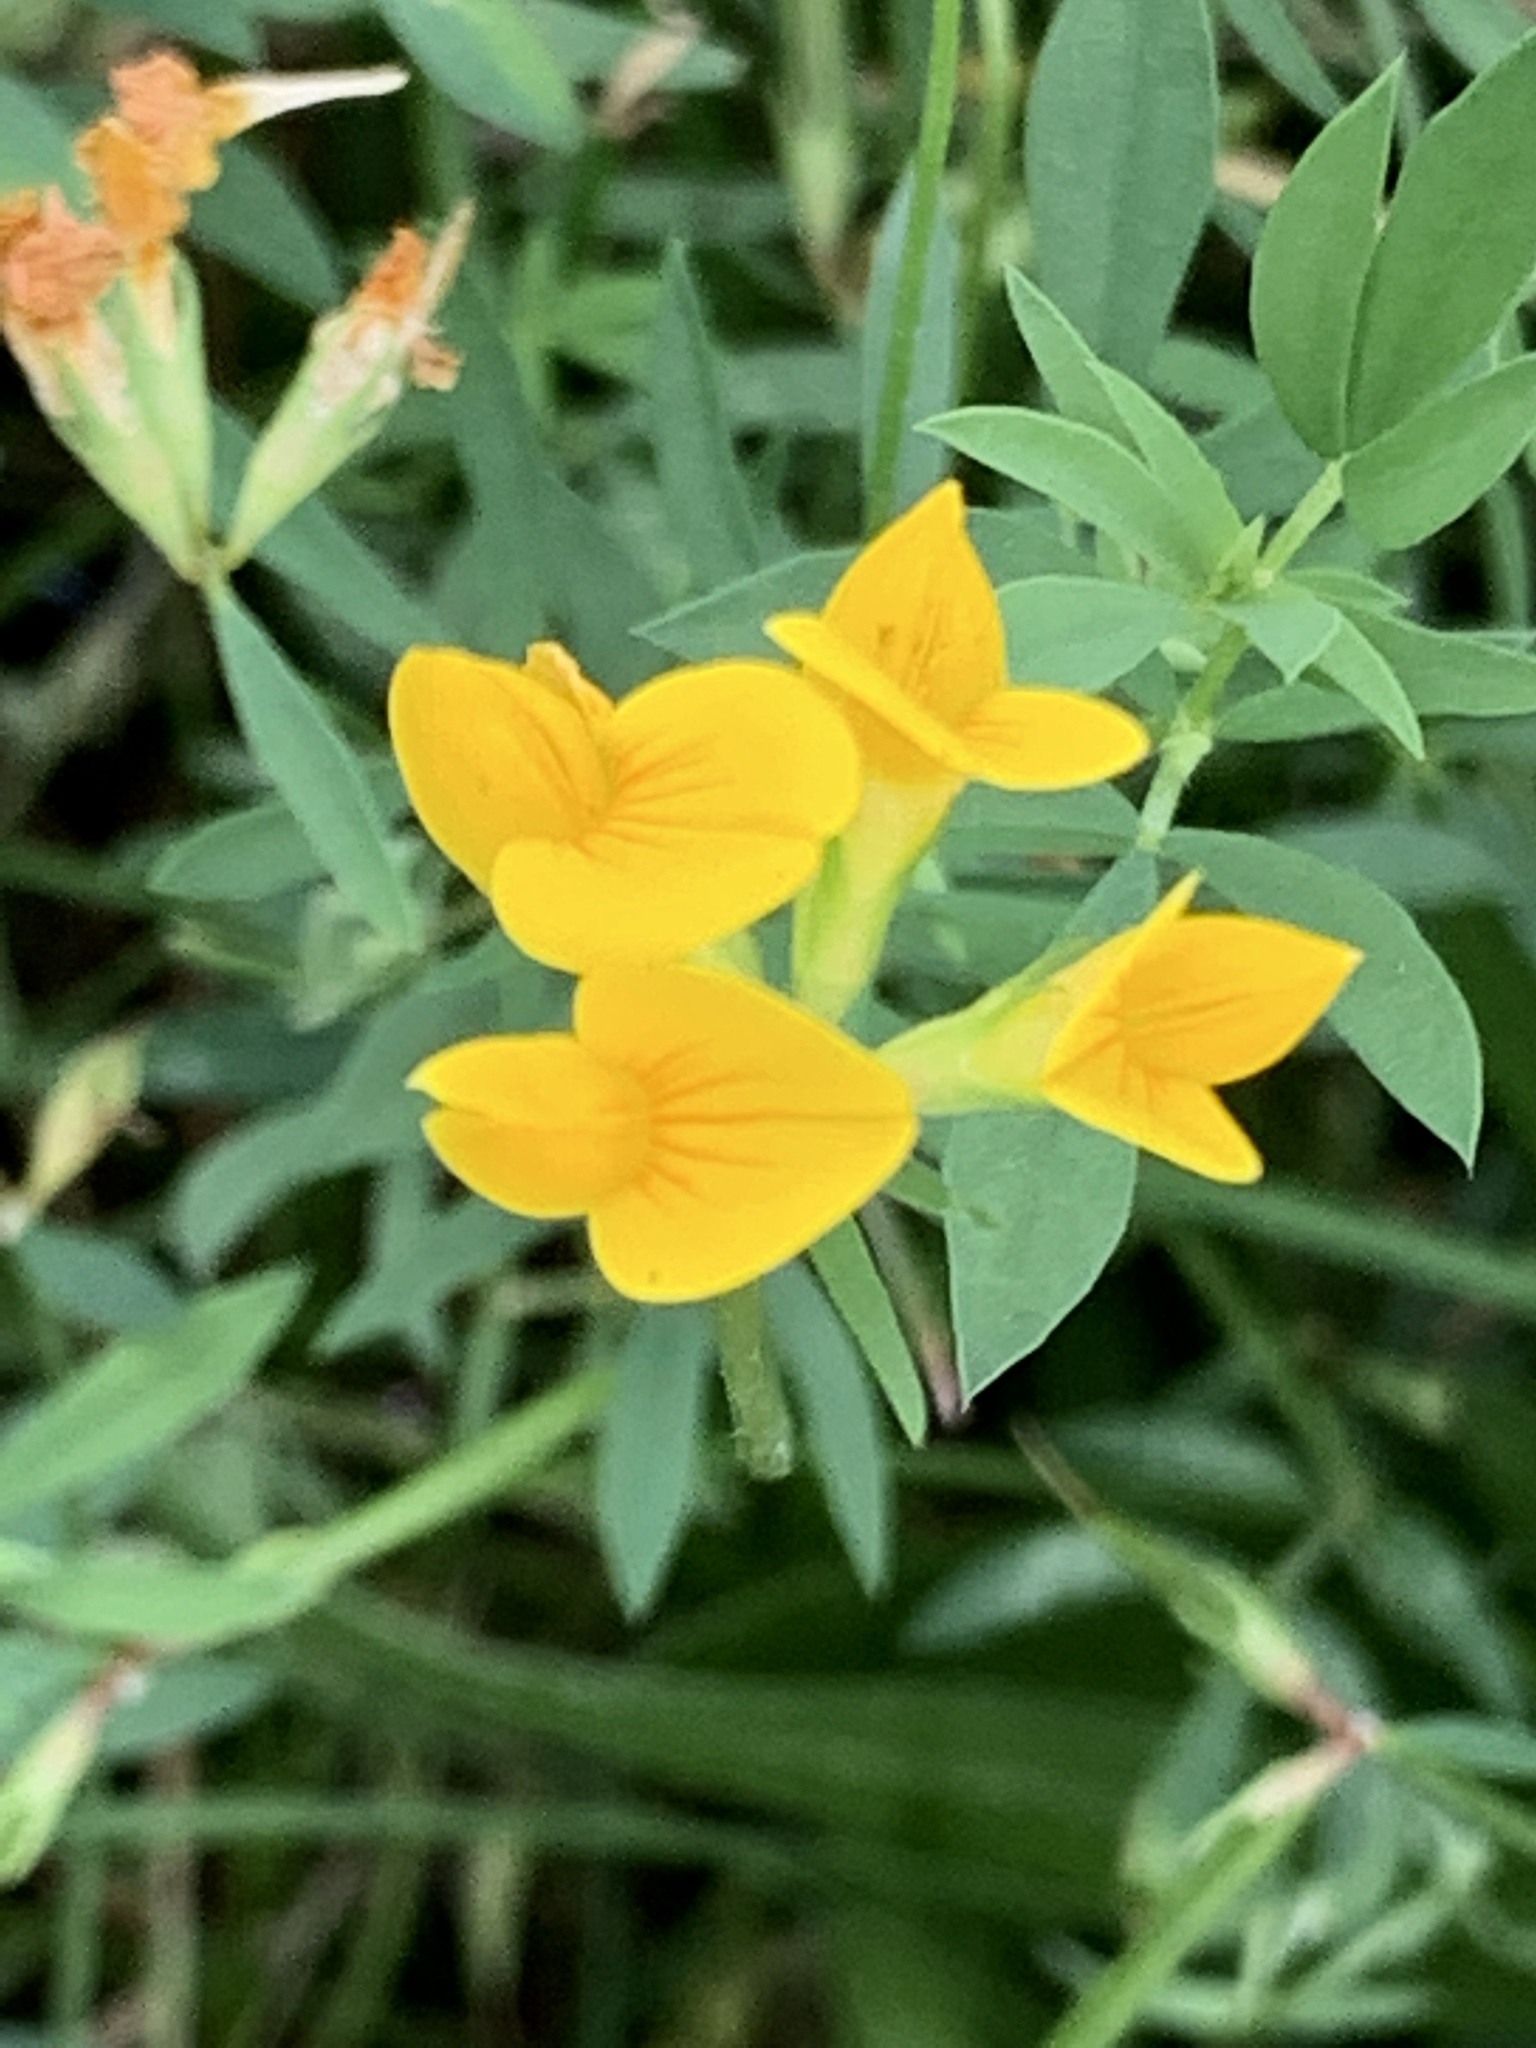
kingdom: Plantae
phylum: Tracheophyta
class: Magnoliopsida
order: Fabales
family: Fabaceae
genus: Lotus
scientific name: Lotus corniculatus
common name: Common bird's-foot-trefoil
